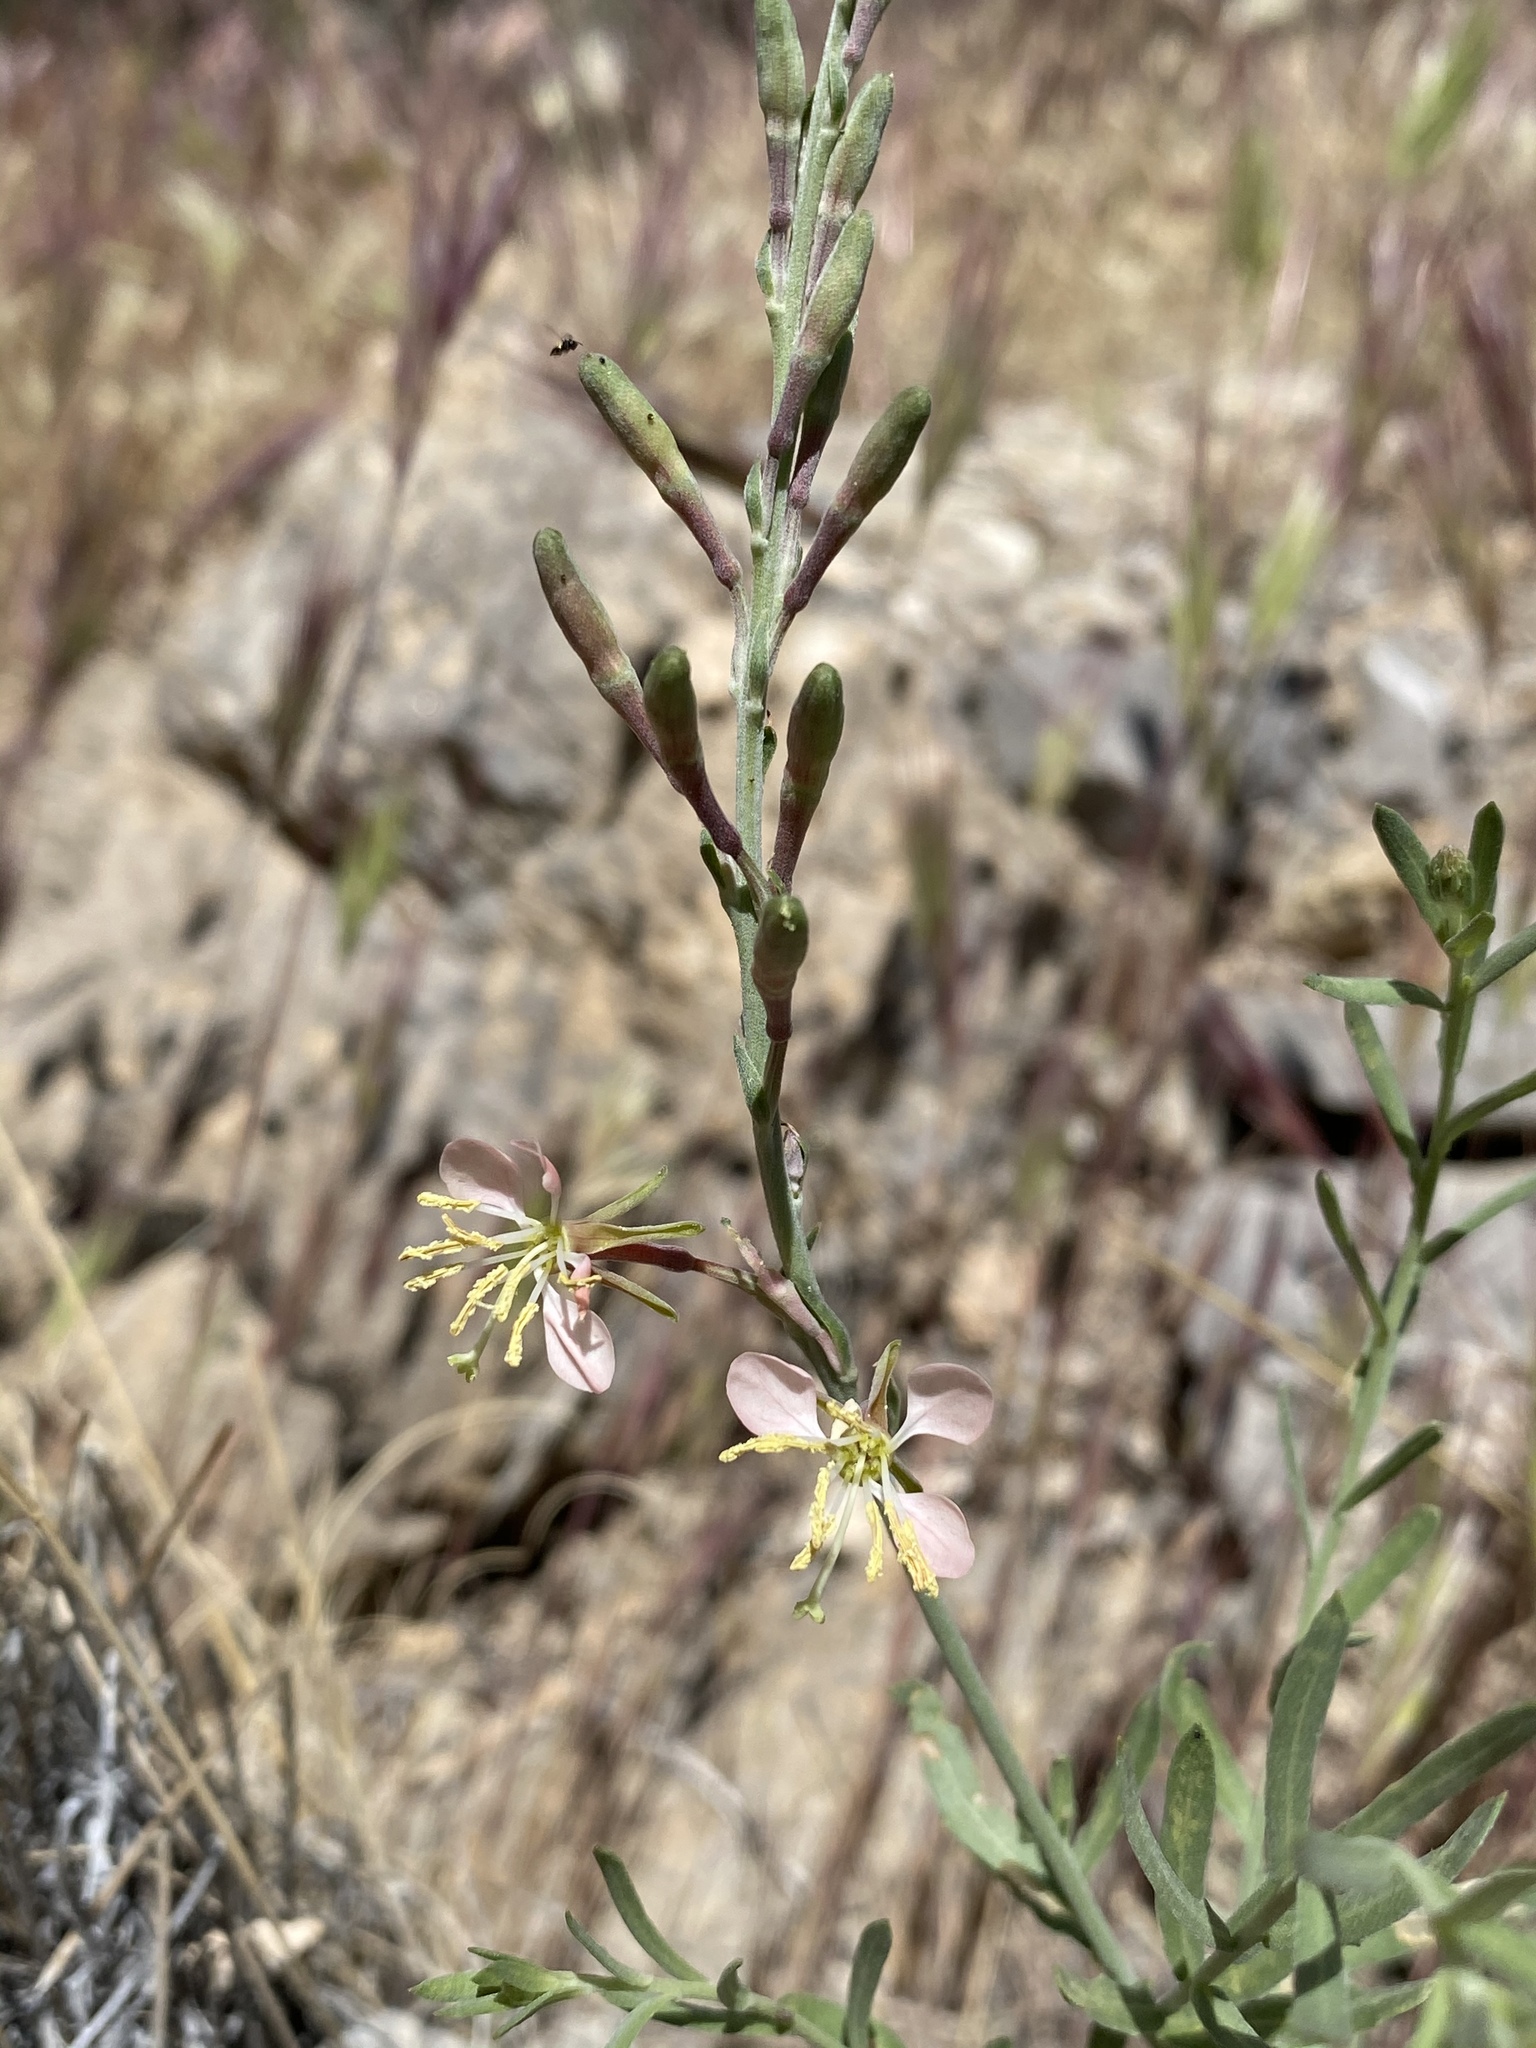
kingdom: Plantae
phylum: Tracheophyta
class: Magnoliopsida
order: Myrtales
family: Onagraceae
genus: Oenothera
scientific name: Oenothera suffrutescens
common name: Scarlet beeblossom
